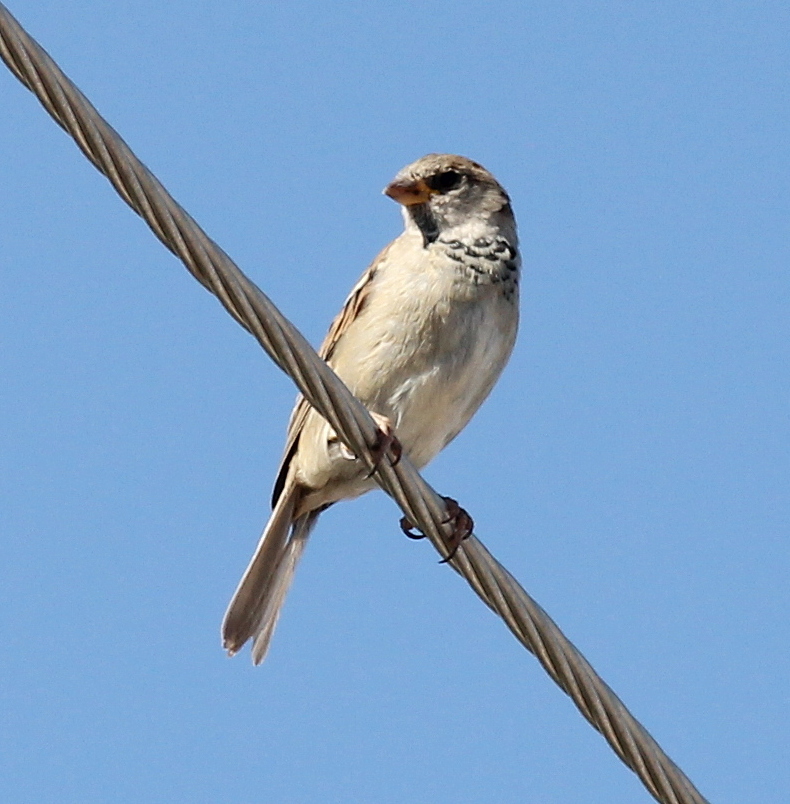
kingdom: Animalia
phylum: Chordata
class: Aves
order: Passeriformes
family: Passeridae
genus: Passer
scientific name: Passer domesticus
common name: House sparrow
